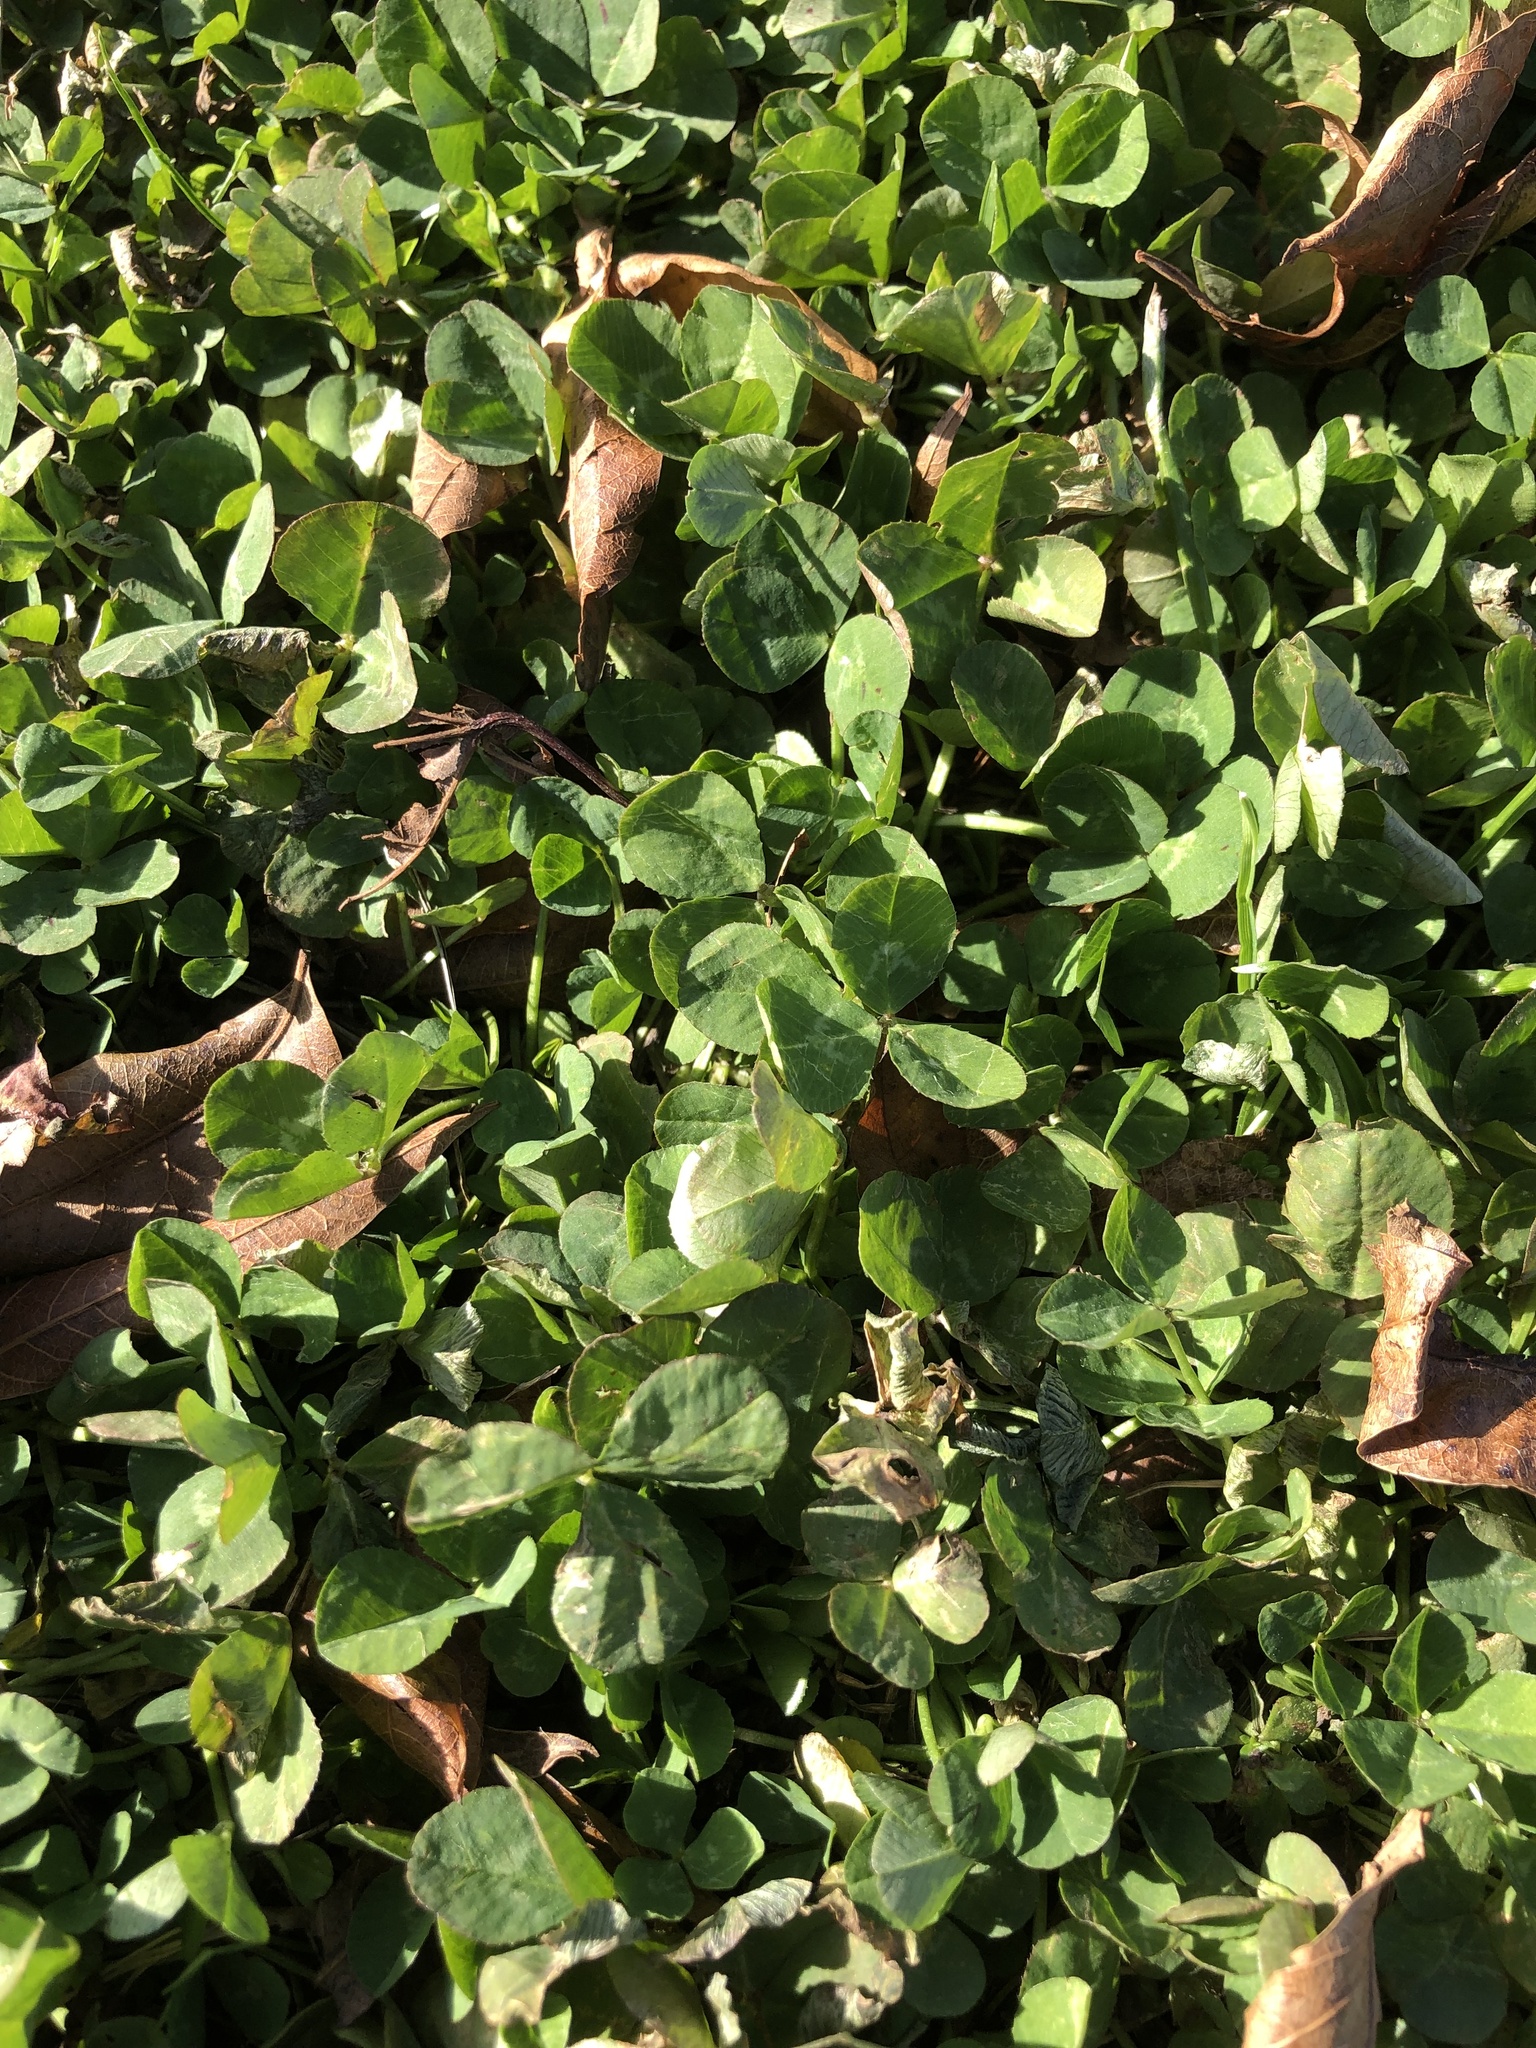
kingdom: Plantae
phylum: Tracheophyta
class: Magnoliopsida
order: Fabales
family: Fabaceae
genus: Trifolium
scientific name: Trifolium repens
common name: White clover
